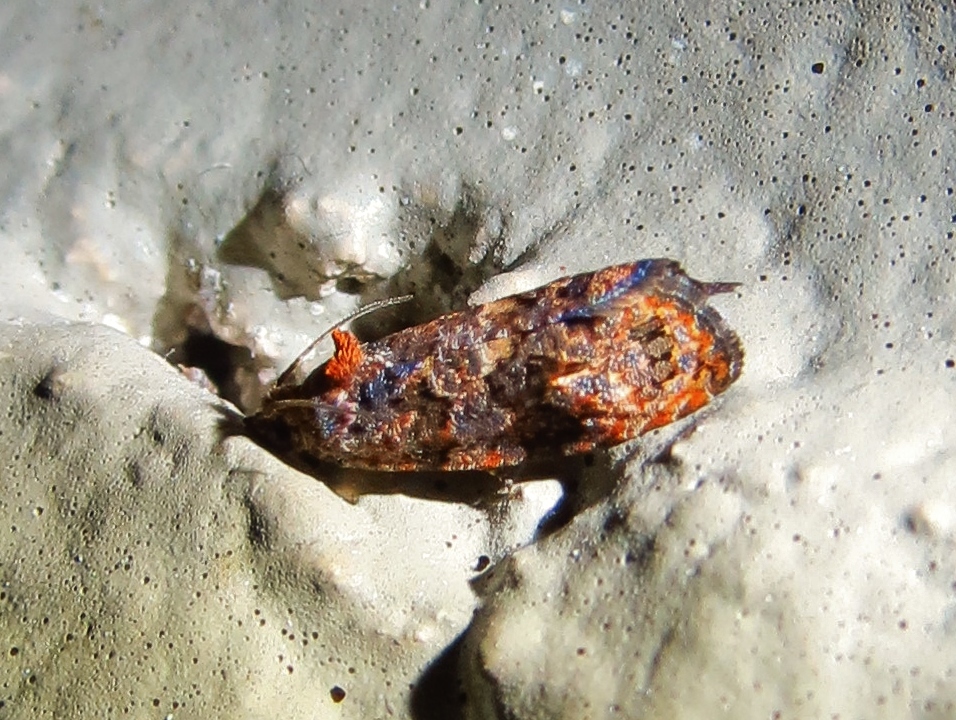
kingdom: Animalia
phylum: Arthropoda
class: Insecta
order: Lepidoptera
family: Tortricidae
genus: Endothenia
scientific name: Endothenia hebesana
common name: Verbena bud moth
